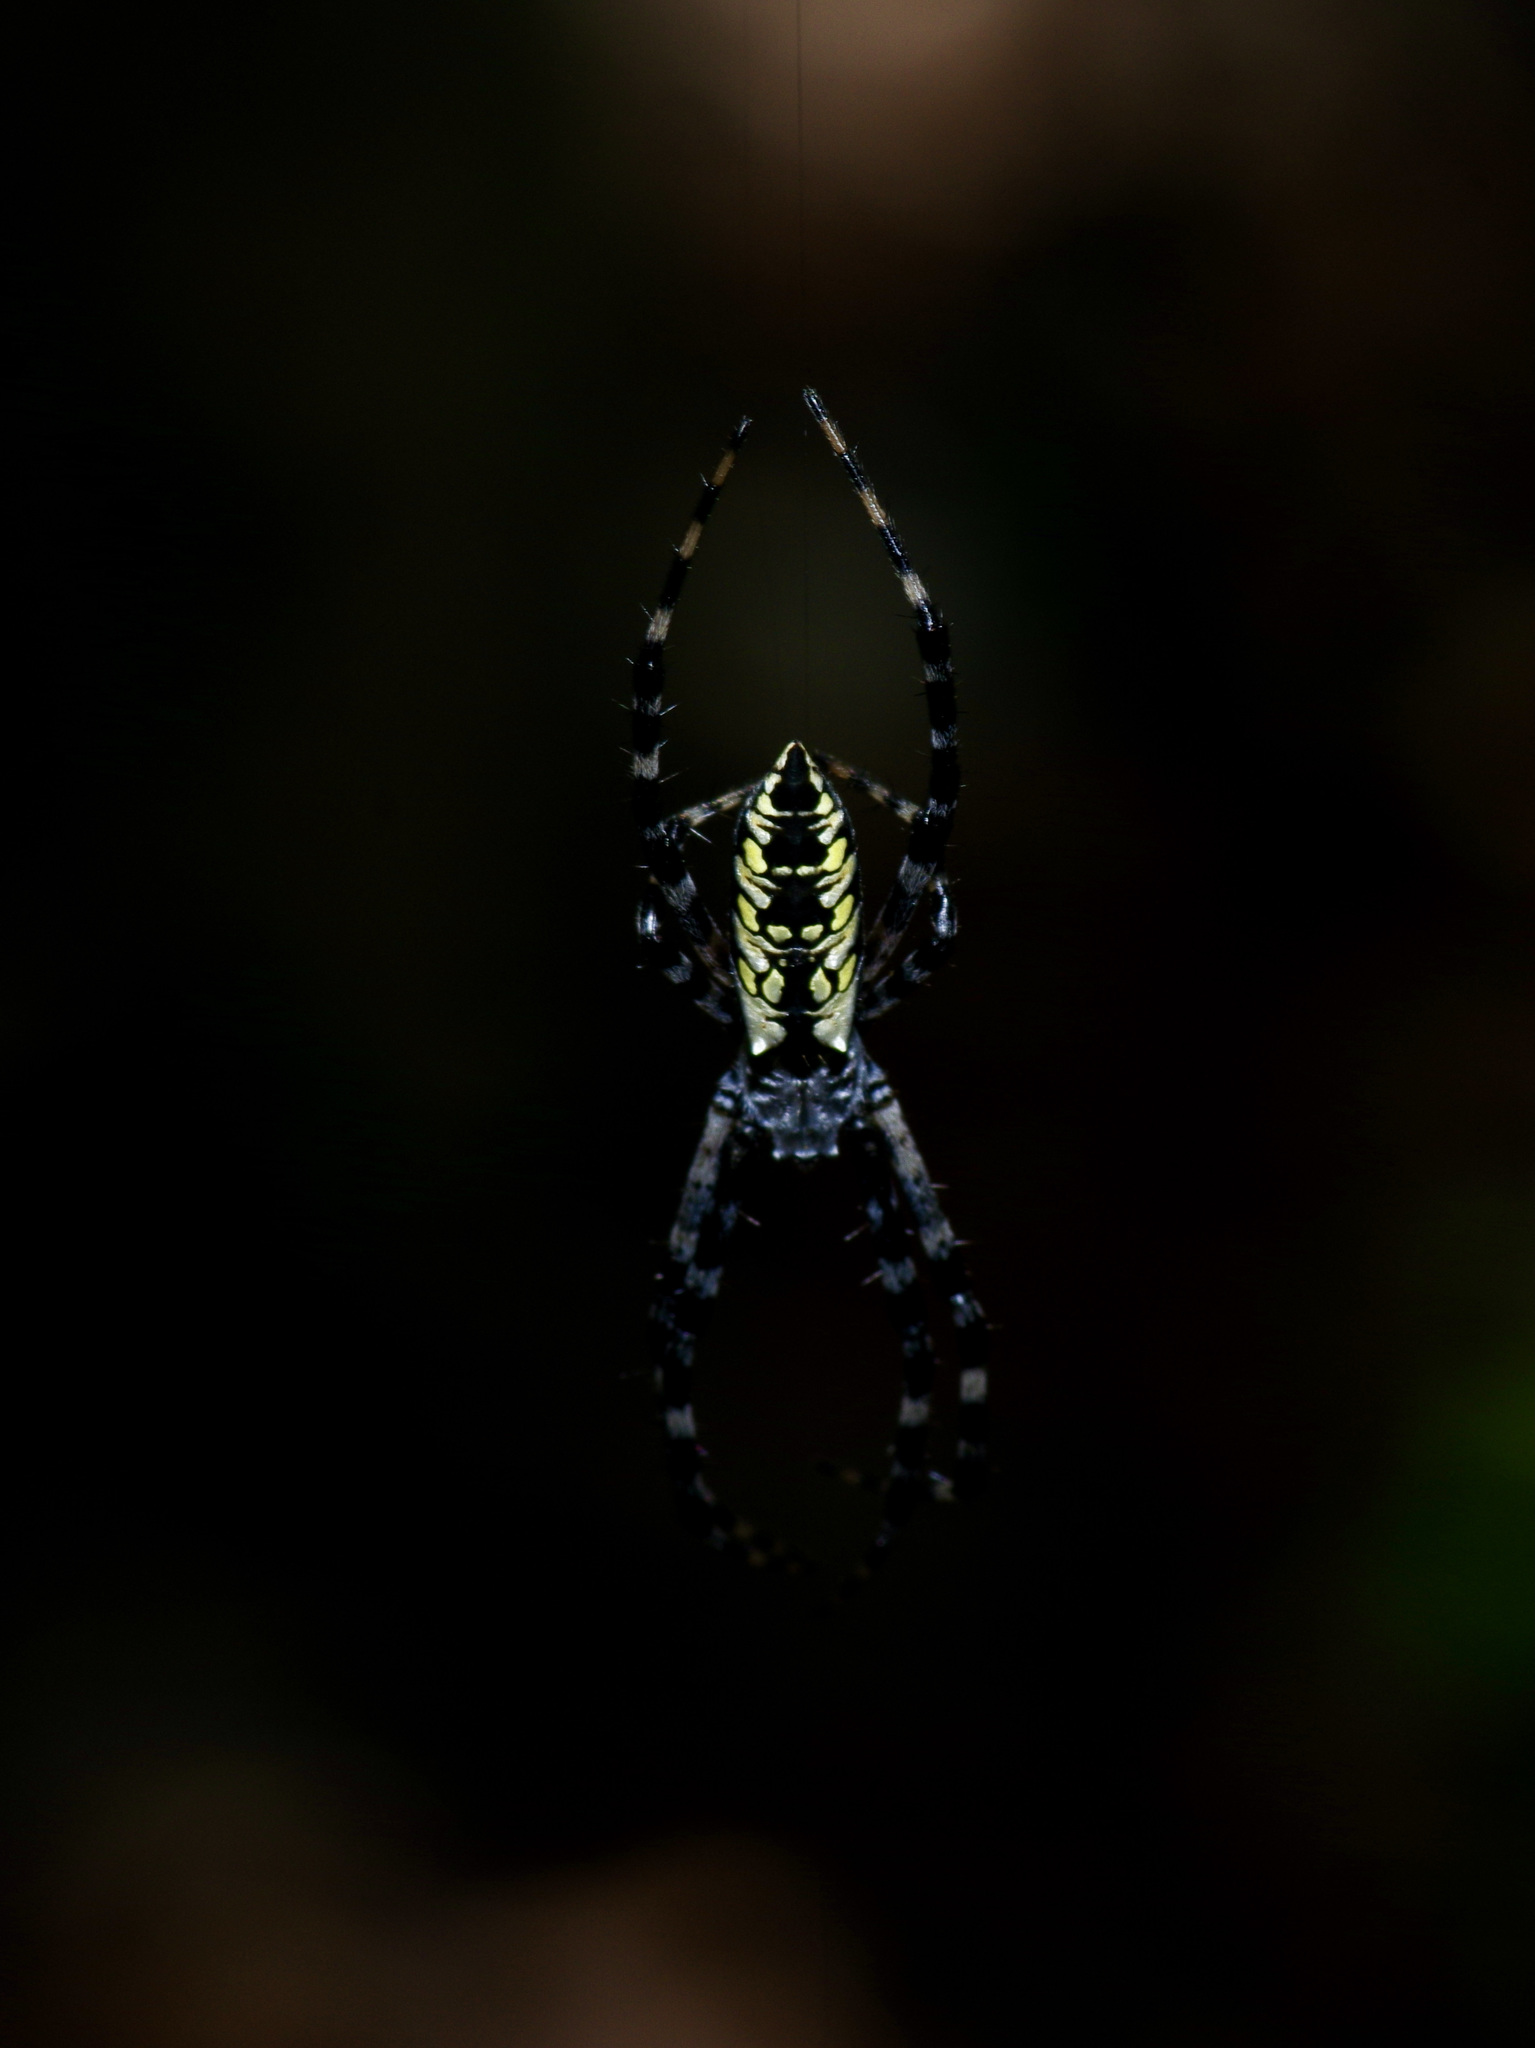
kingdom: Animalia
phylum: Arthropoda
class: Arachnida
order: Araneae
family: Araneidae
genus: Argiope
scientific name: Argiope aurantia
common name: Orb weavers
